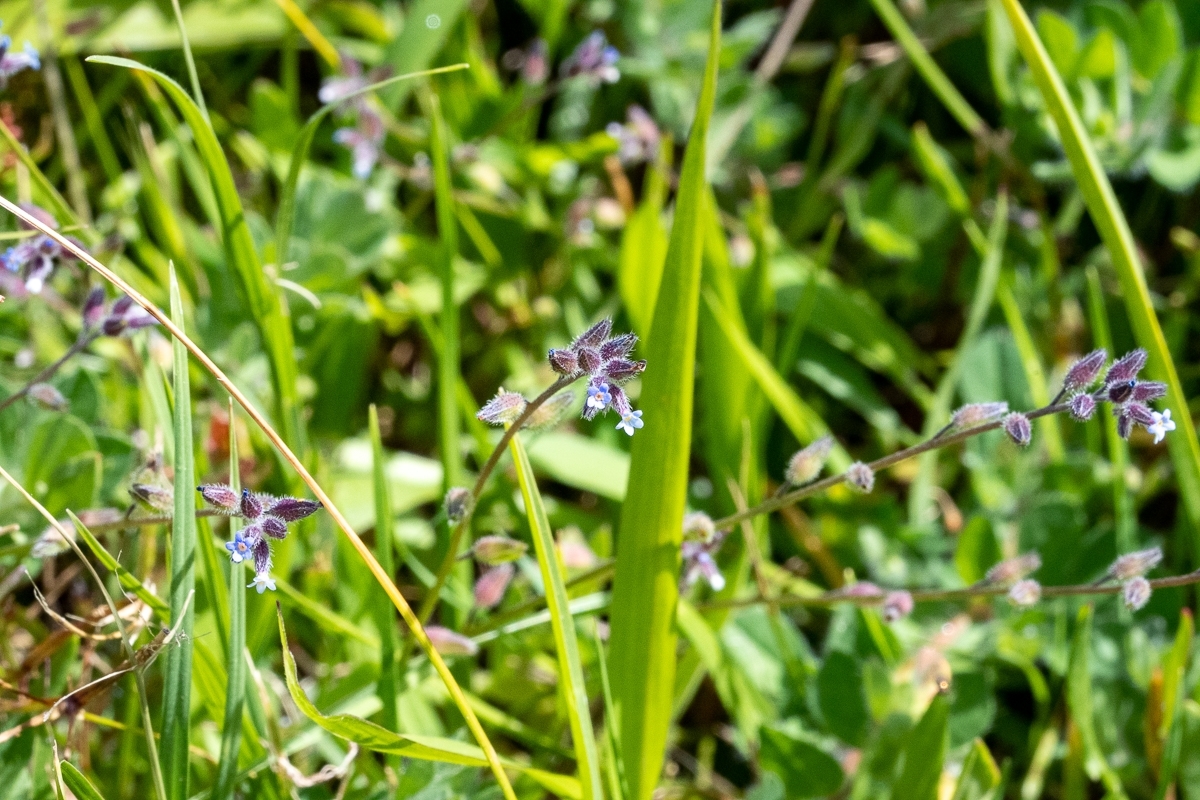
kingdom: Plantae
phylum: Tracheophyta
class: Magnoliopsida
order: Boraginales
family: Boraginaceae
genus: Myosotis
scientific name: Myosotis discolor
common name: Changing forget-me-not
